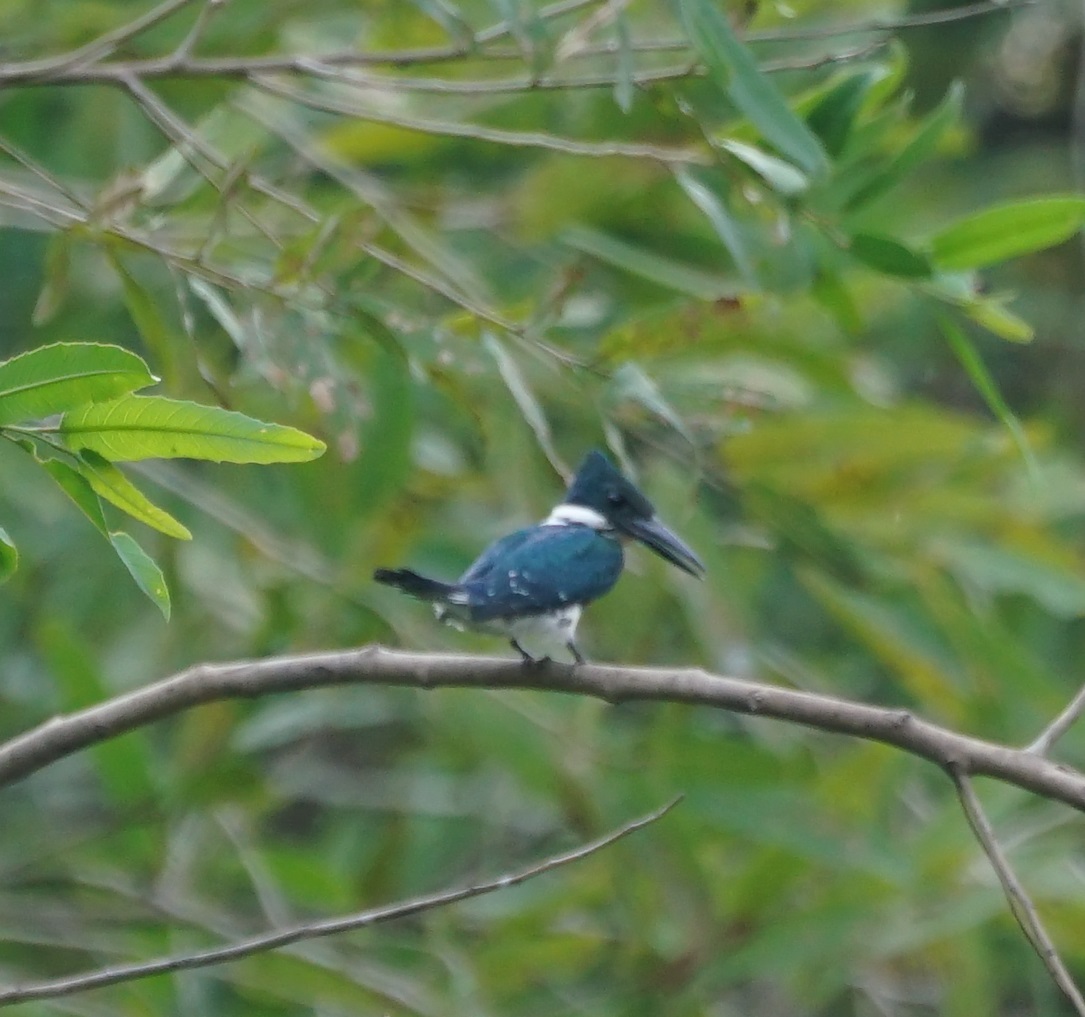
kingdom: Animalia
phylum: Chordata
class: Aves
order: Coraciiformes
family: Alcedinidae
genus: Chloroceryle
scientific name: Chloroceryle americana
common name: Green kingfisher
